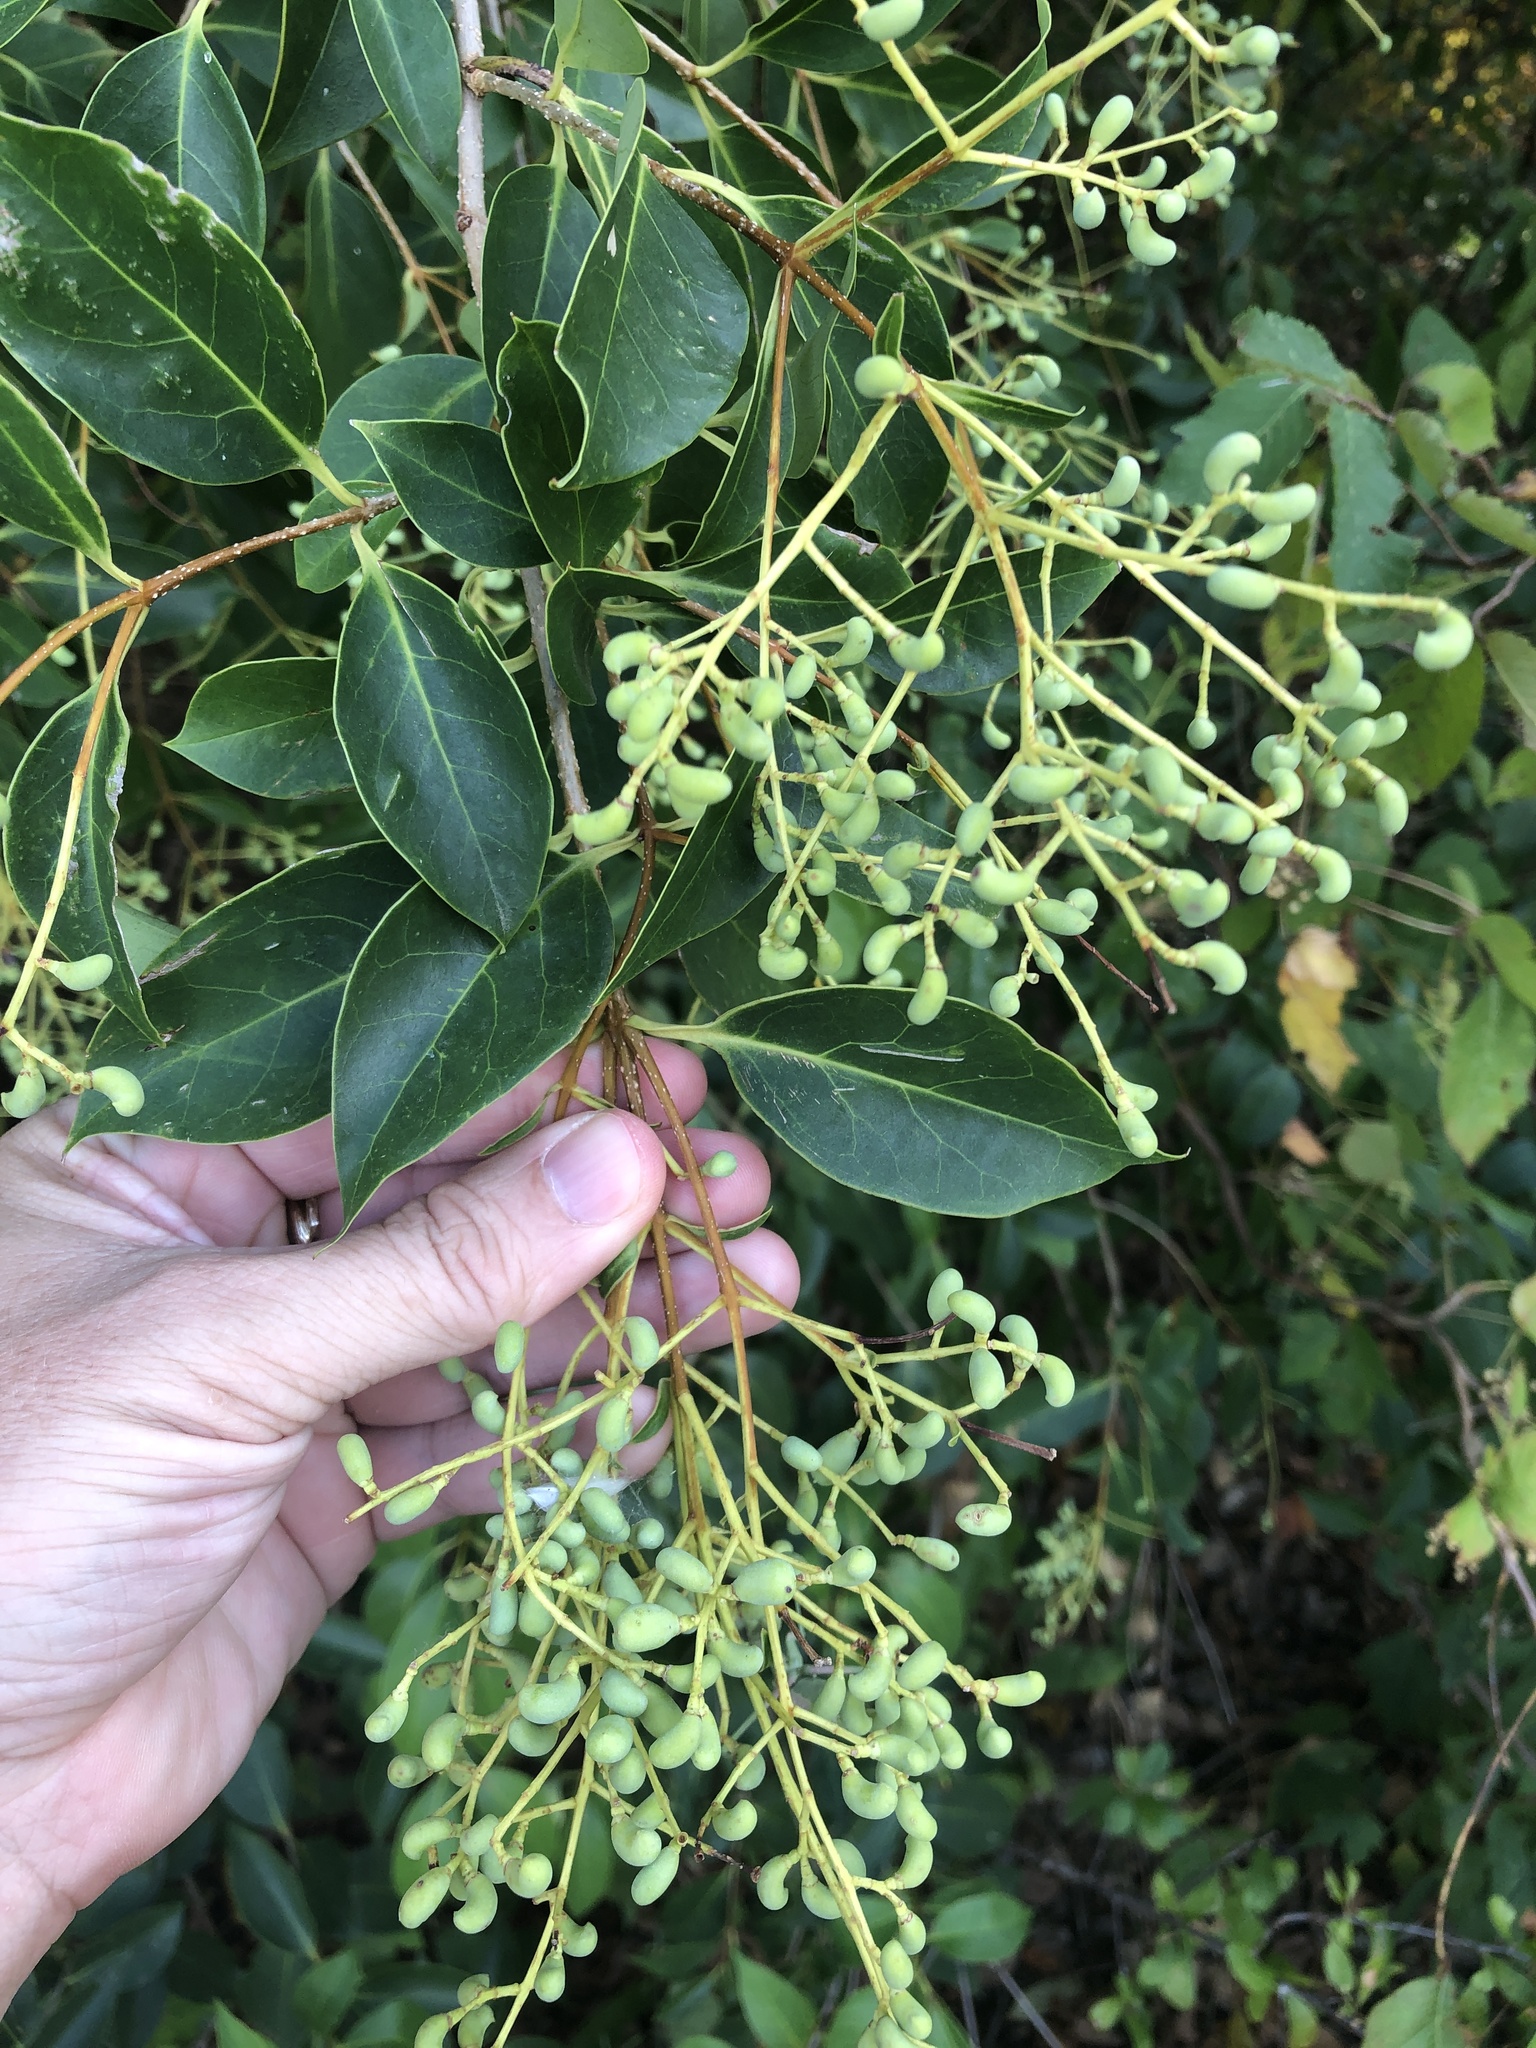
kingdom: Plantae
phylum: Tracheophyta
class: Magnoliopsida
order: Lamiales
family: Oleaceae
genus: Ligustrum
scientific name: Ligustrum lucidum
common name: Glossy privet
